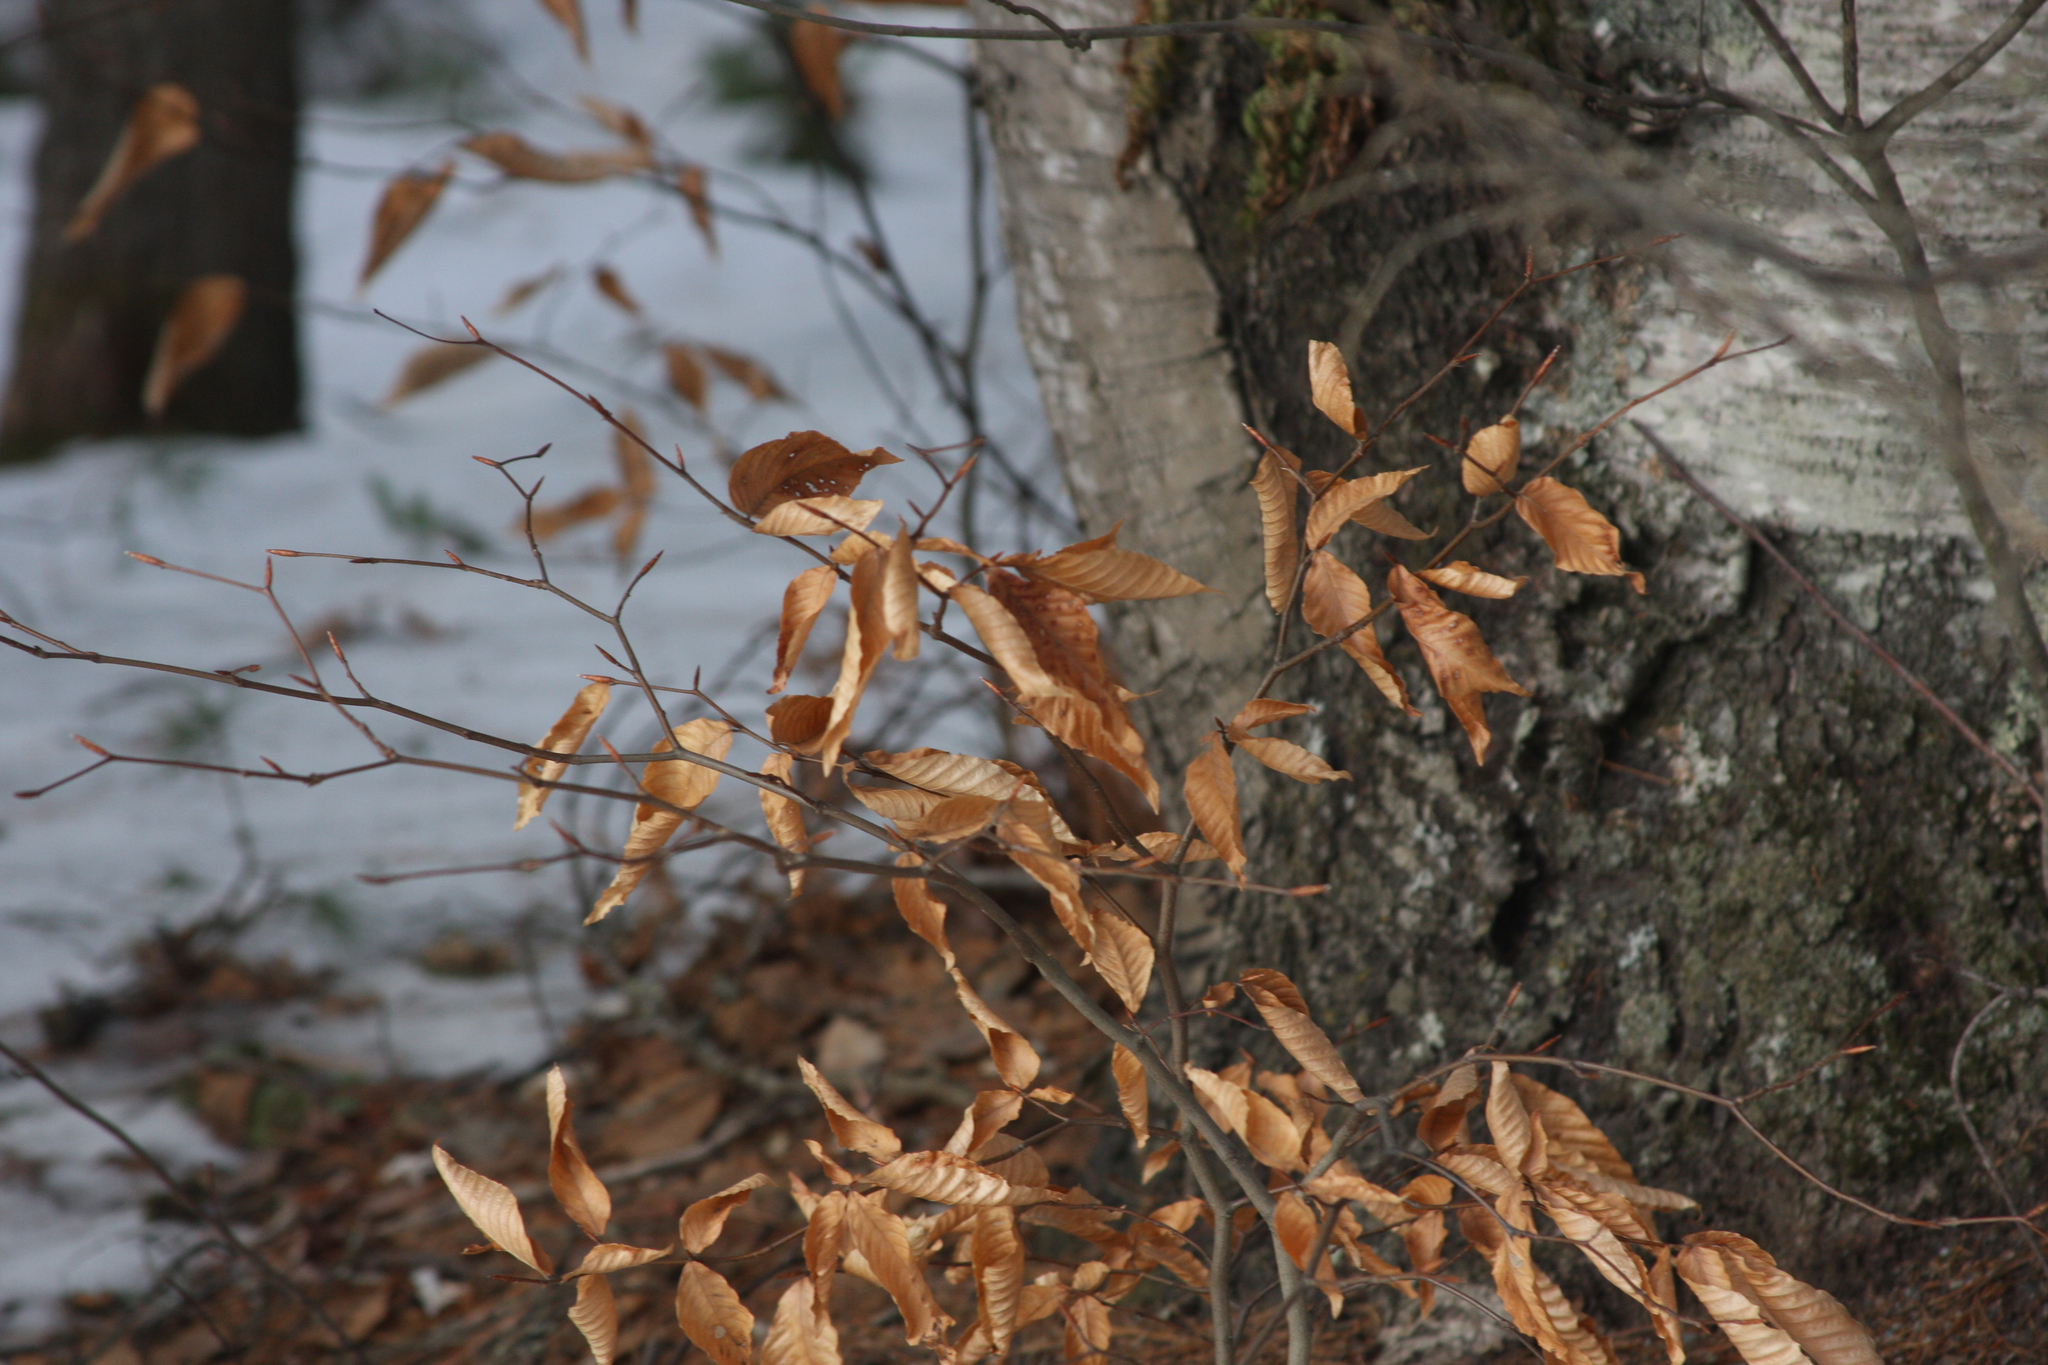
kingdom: Plantae
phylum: Tracheophyta
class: Magnoliopsida
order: Fagales
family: Fagaceae
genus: Fagus
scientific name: Fagus grandifolia
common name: American beech
